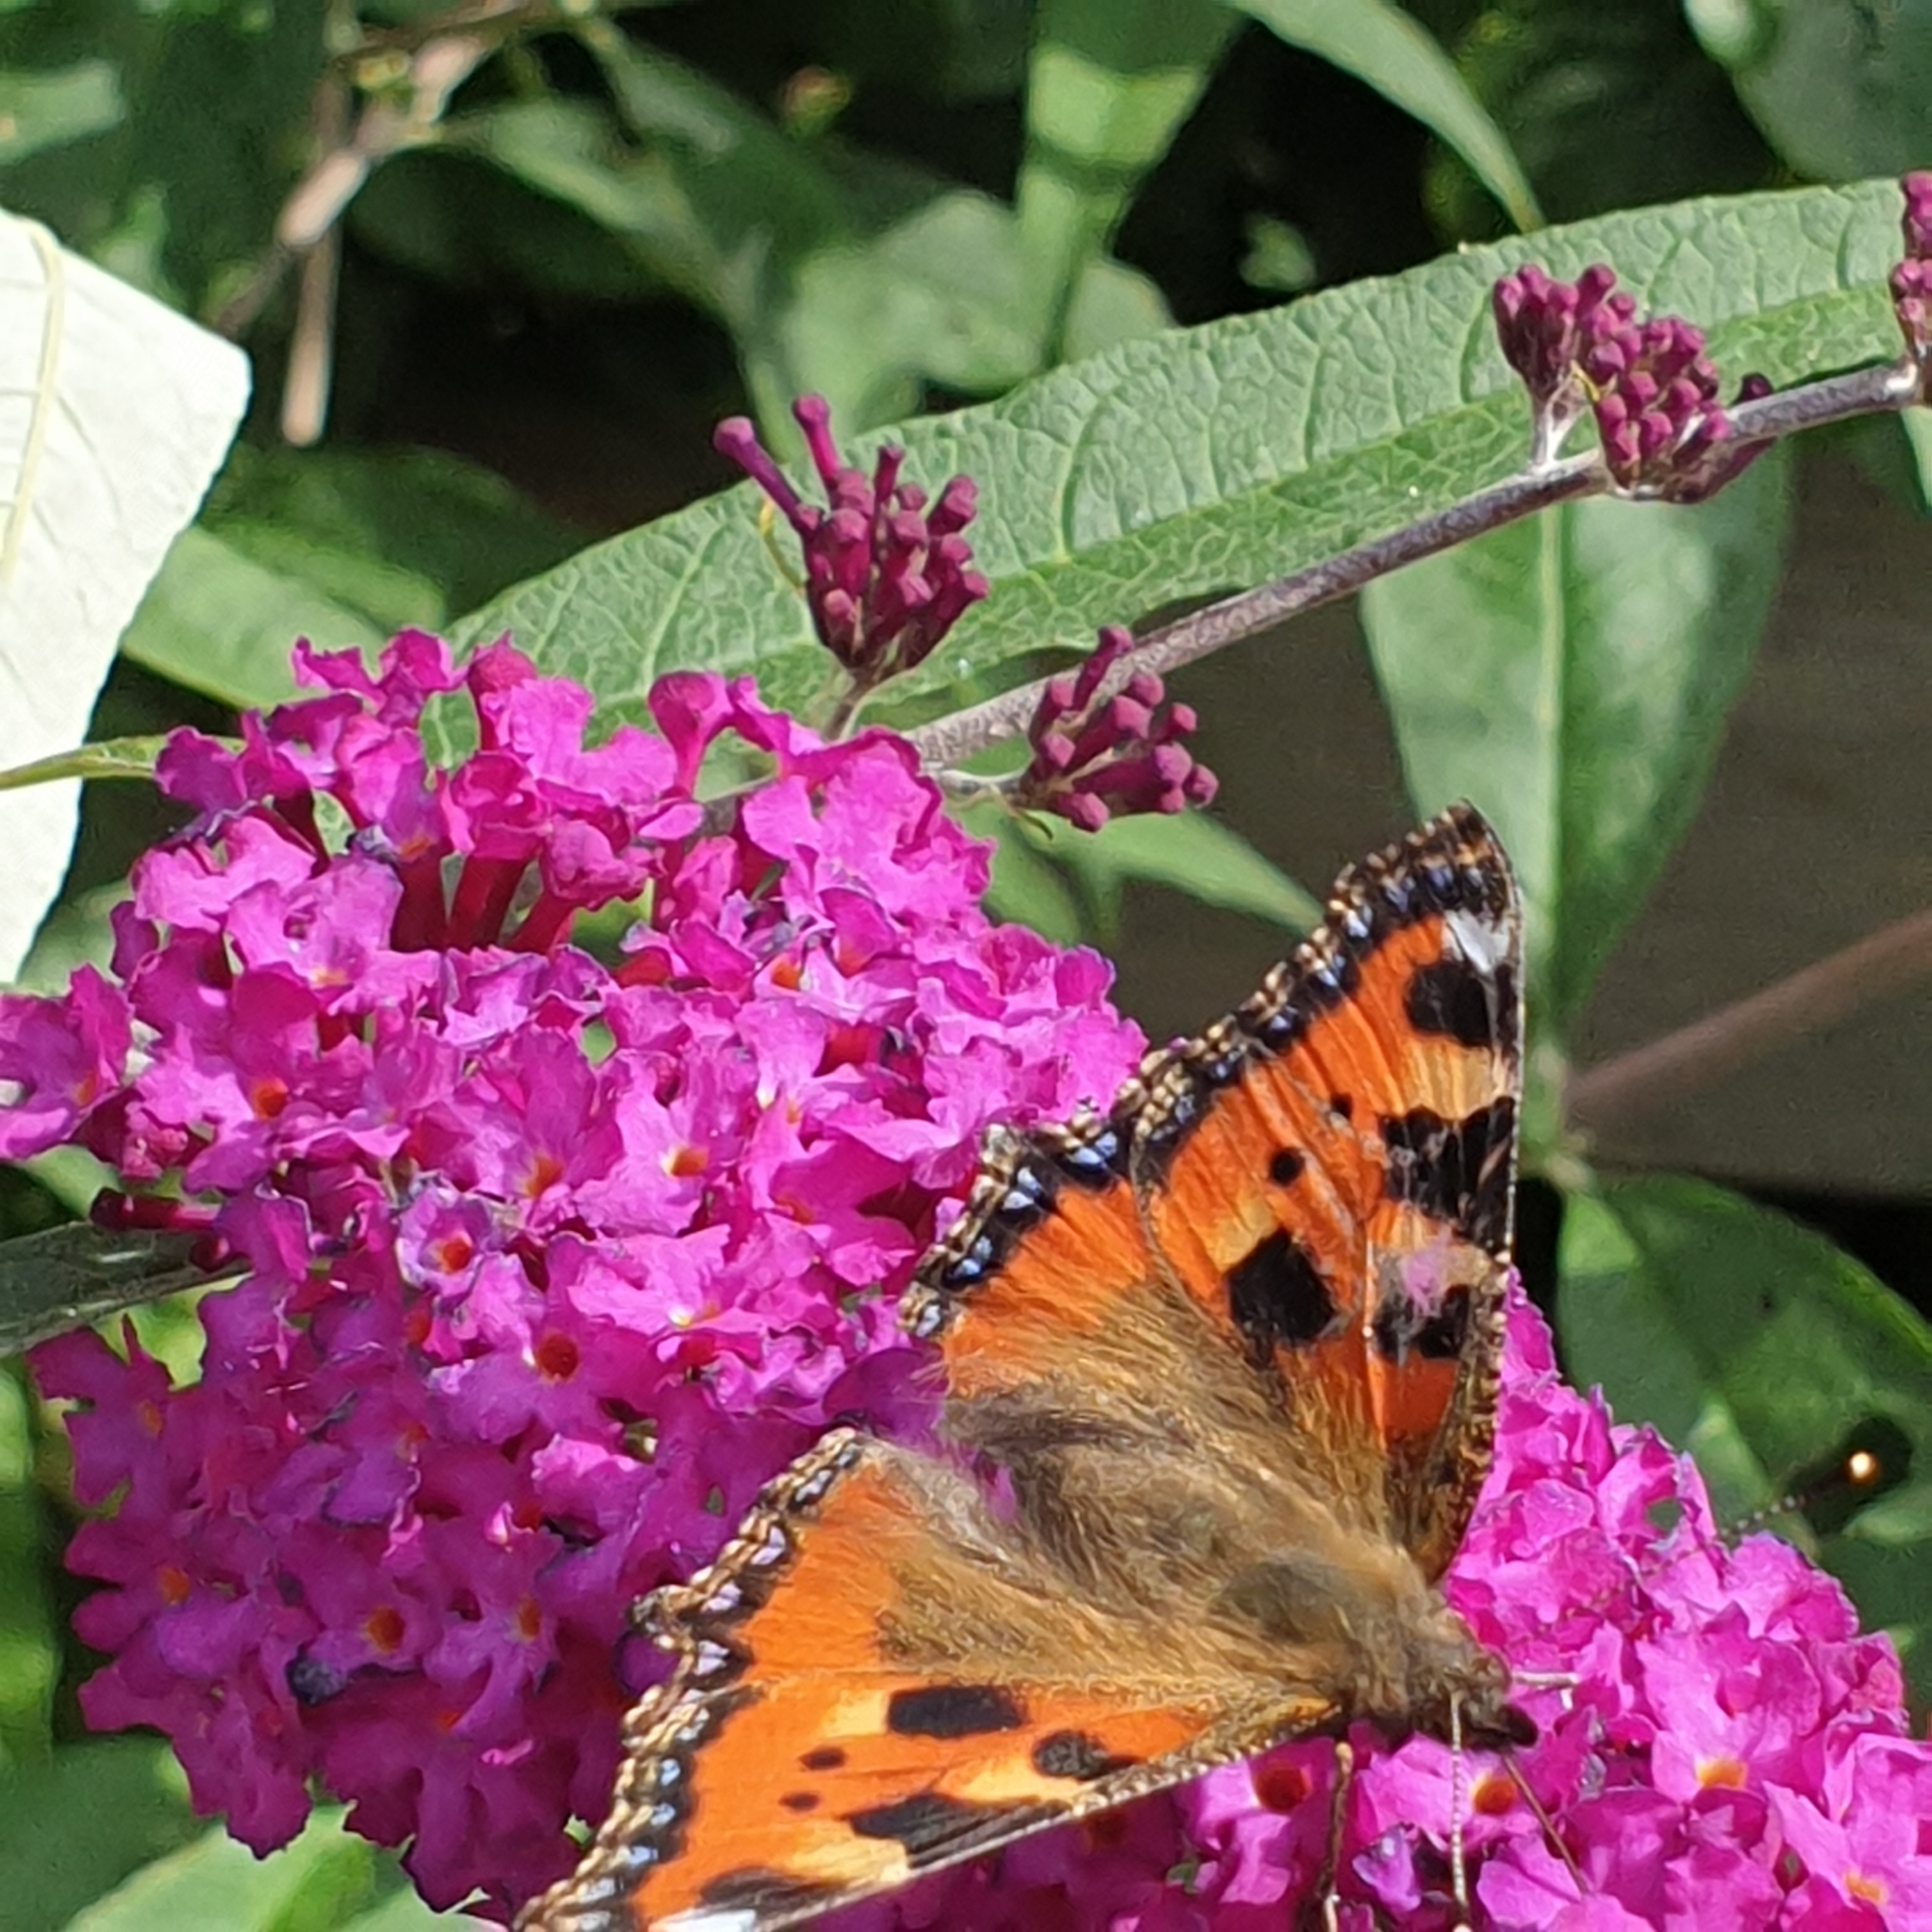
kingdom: Animalia
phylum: Arthropoda
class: Insecta
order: Lepidoptera
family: Nymphalidae
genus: Aglais
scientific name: Aglais urticae
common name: Small tortoiseshell
